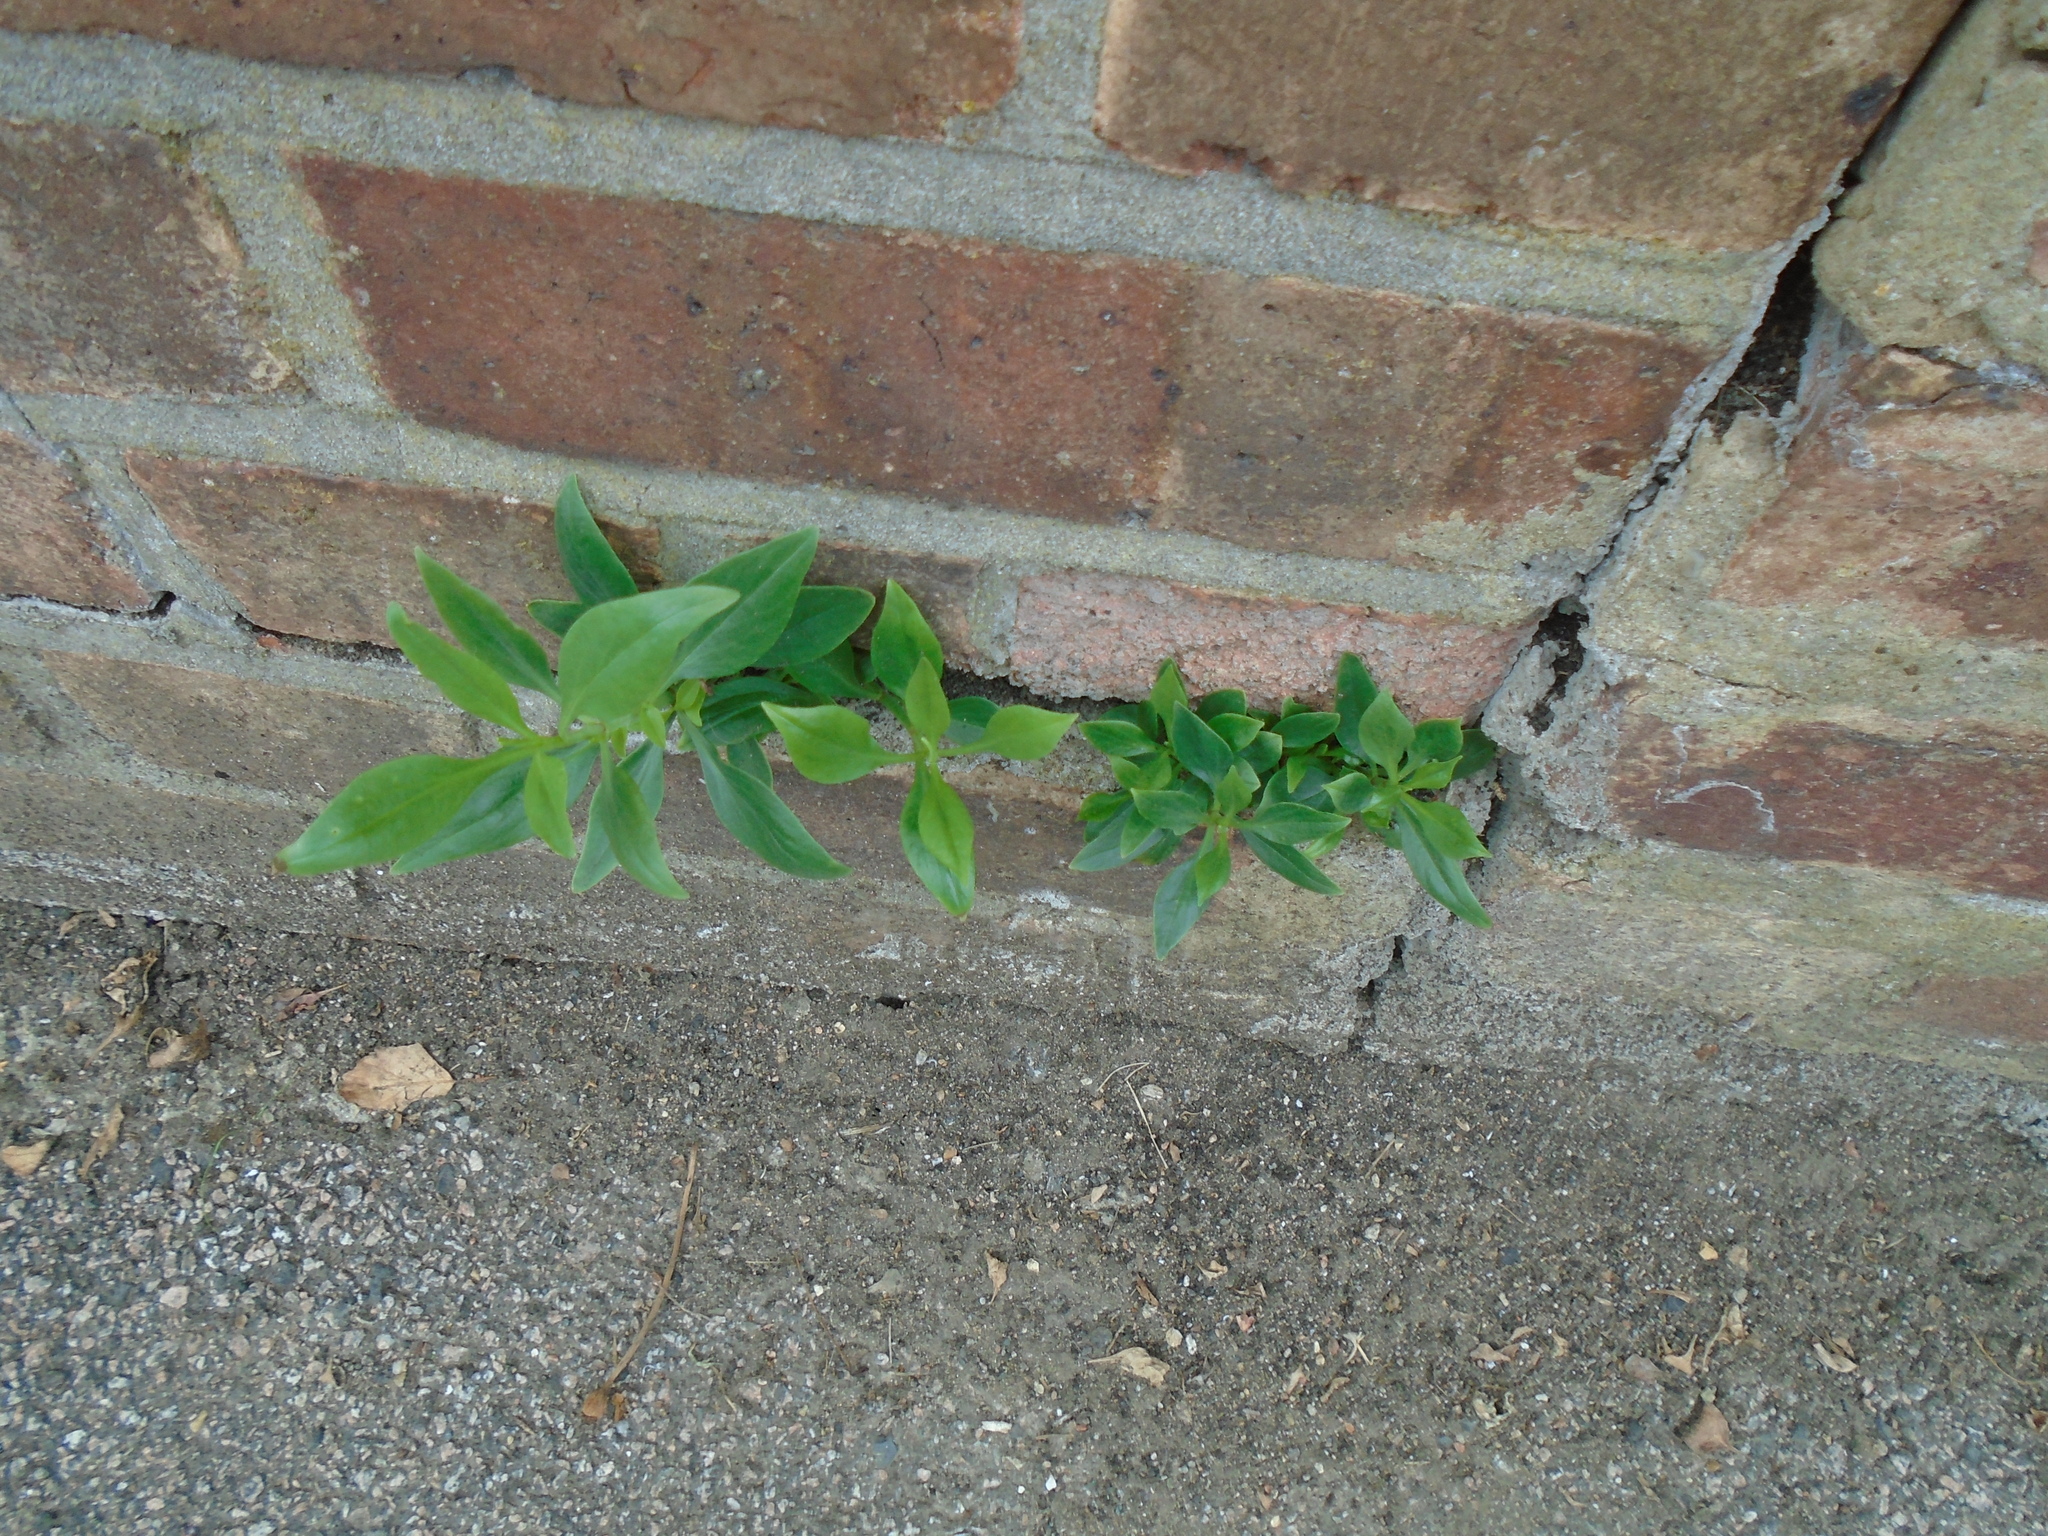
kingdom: Plantae
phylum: Tracheophyta
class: Magnoliopsida
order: Dipsacales
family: Caprifoliaceae
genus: Centranthus
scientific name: Centranthus ruber
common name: Red valerian
